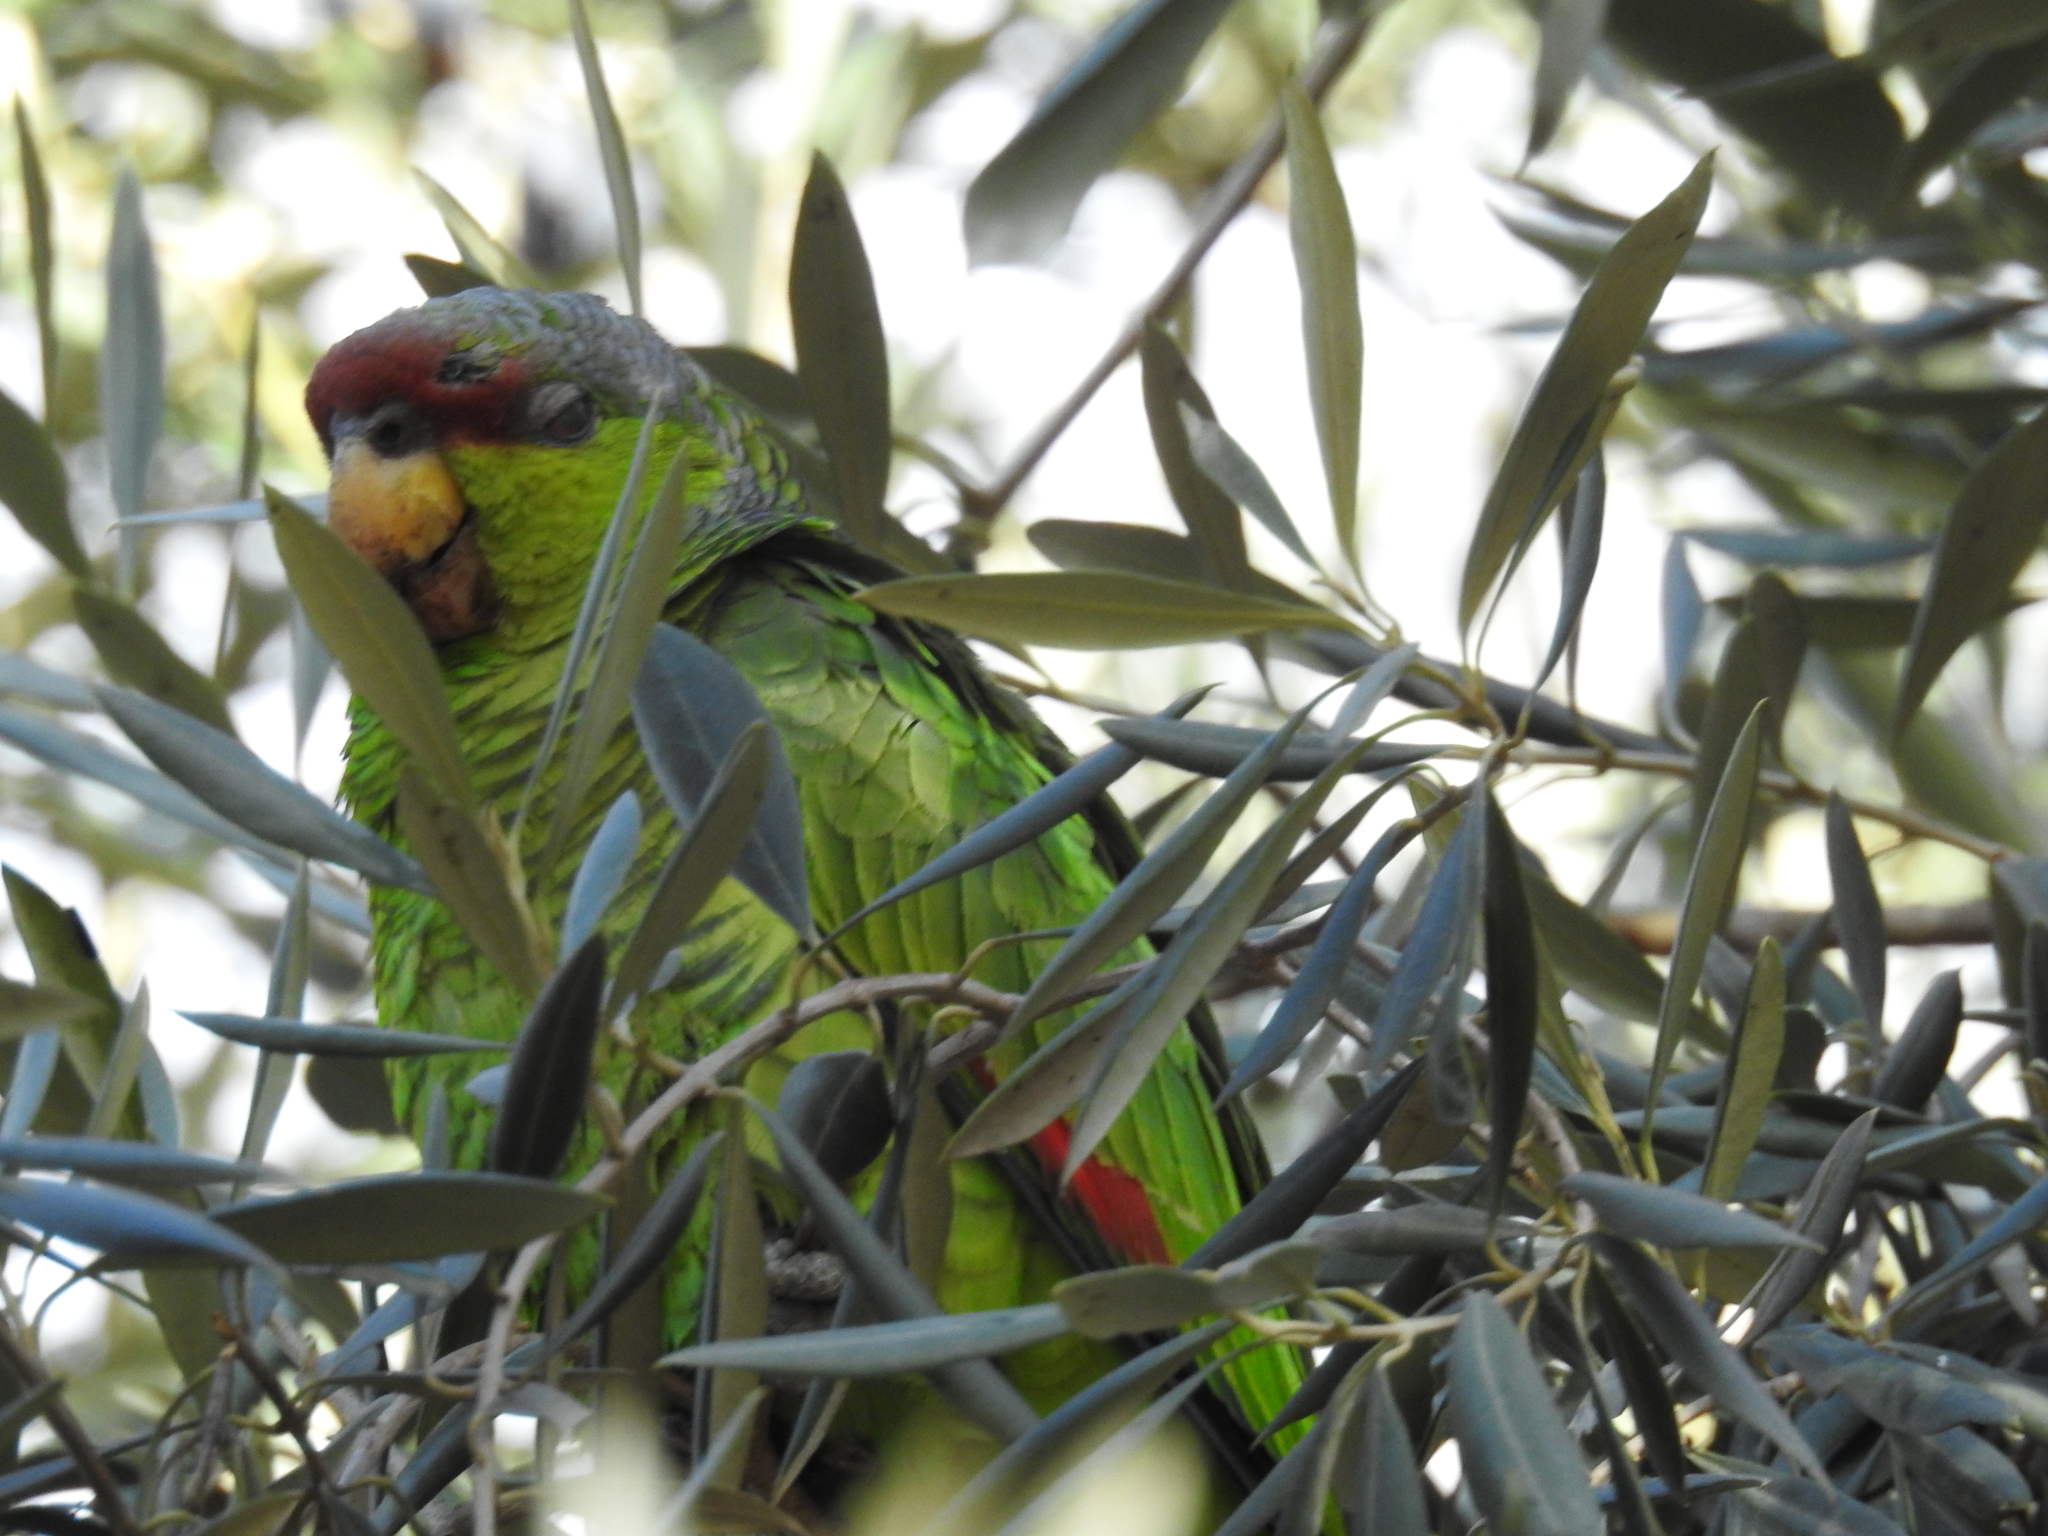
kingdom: Animalia
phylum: Chordata
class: Aves
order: Psittaciformes
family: Psittacidae
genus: Amazona
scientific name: Amazona finschi
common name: Lilac-crowned amazon
